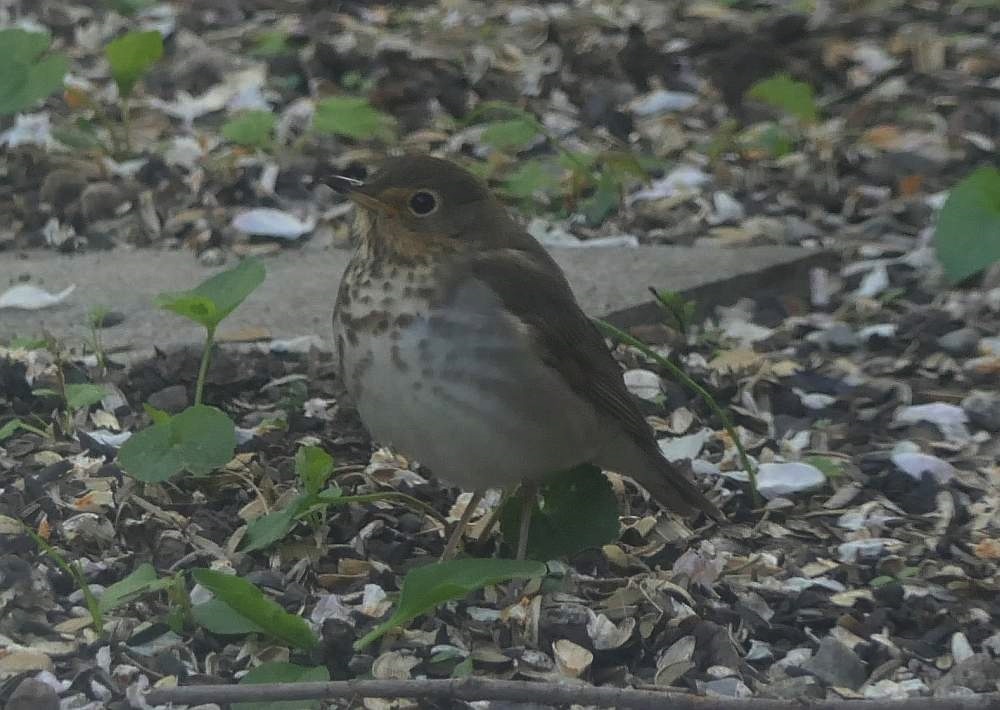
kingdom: Animalia
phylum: Chordata
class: Aves
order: Passeriformes
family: Turdidae
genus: Catharus
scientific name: Catharus ustulatus
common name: Swainson's thrush
